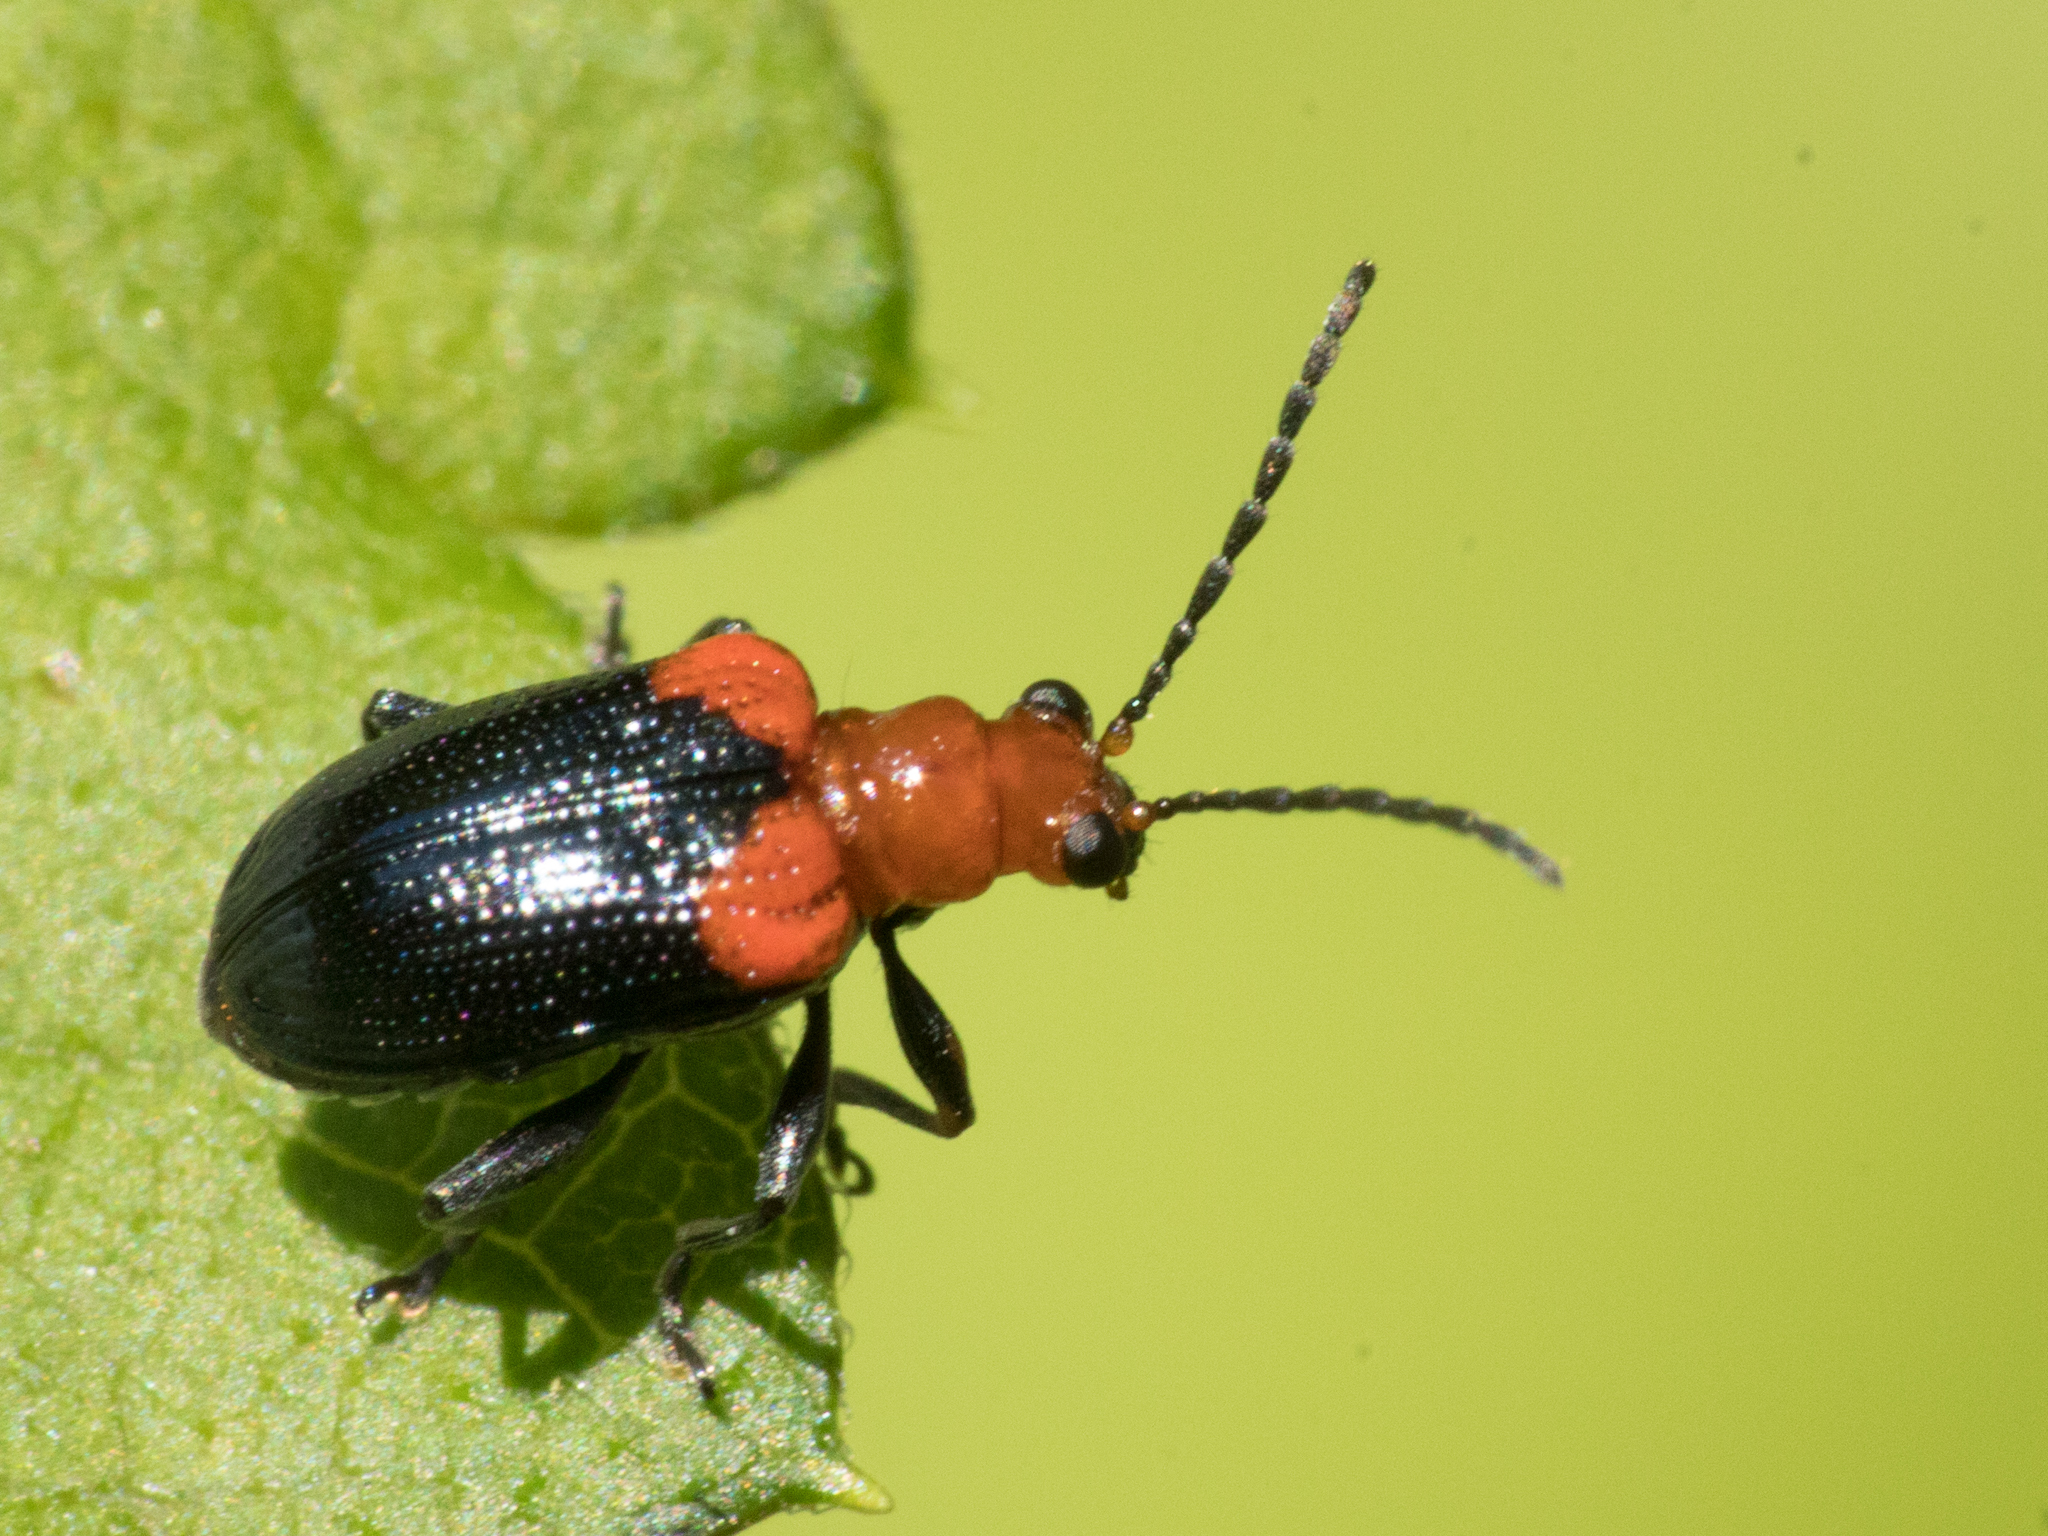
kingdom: Animalia
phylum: Arthropoda
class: Insecta
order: Coleoptera
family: Chrysomelidae
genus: Neolema
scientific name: Neolema
